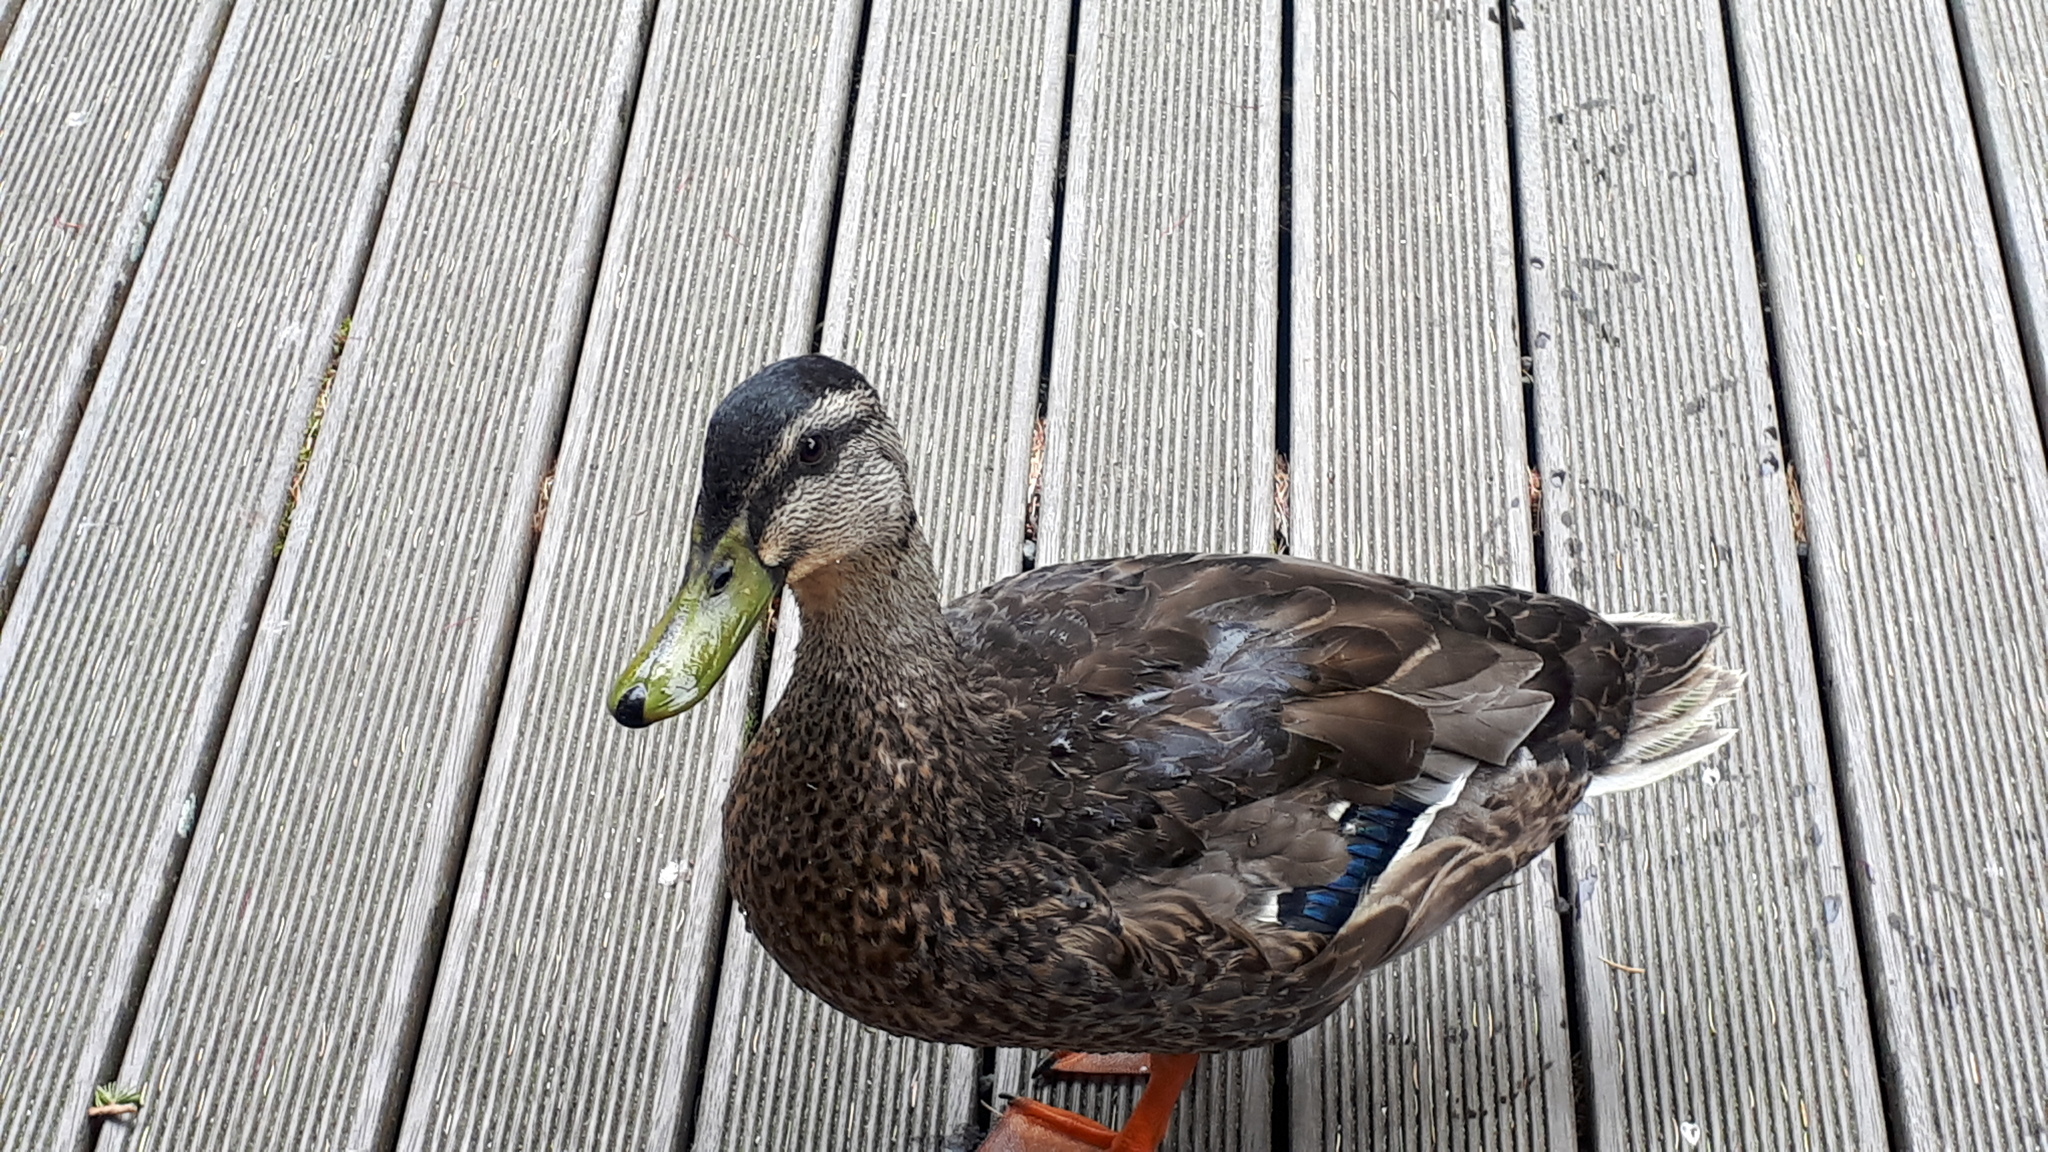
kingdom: Animalia
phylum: Chordata
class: Aves
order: Anseriformes
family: Anatidae
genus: Anas
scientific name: Anas platyrhynchos
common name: Mallard
